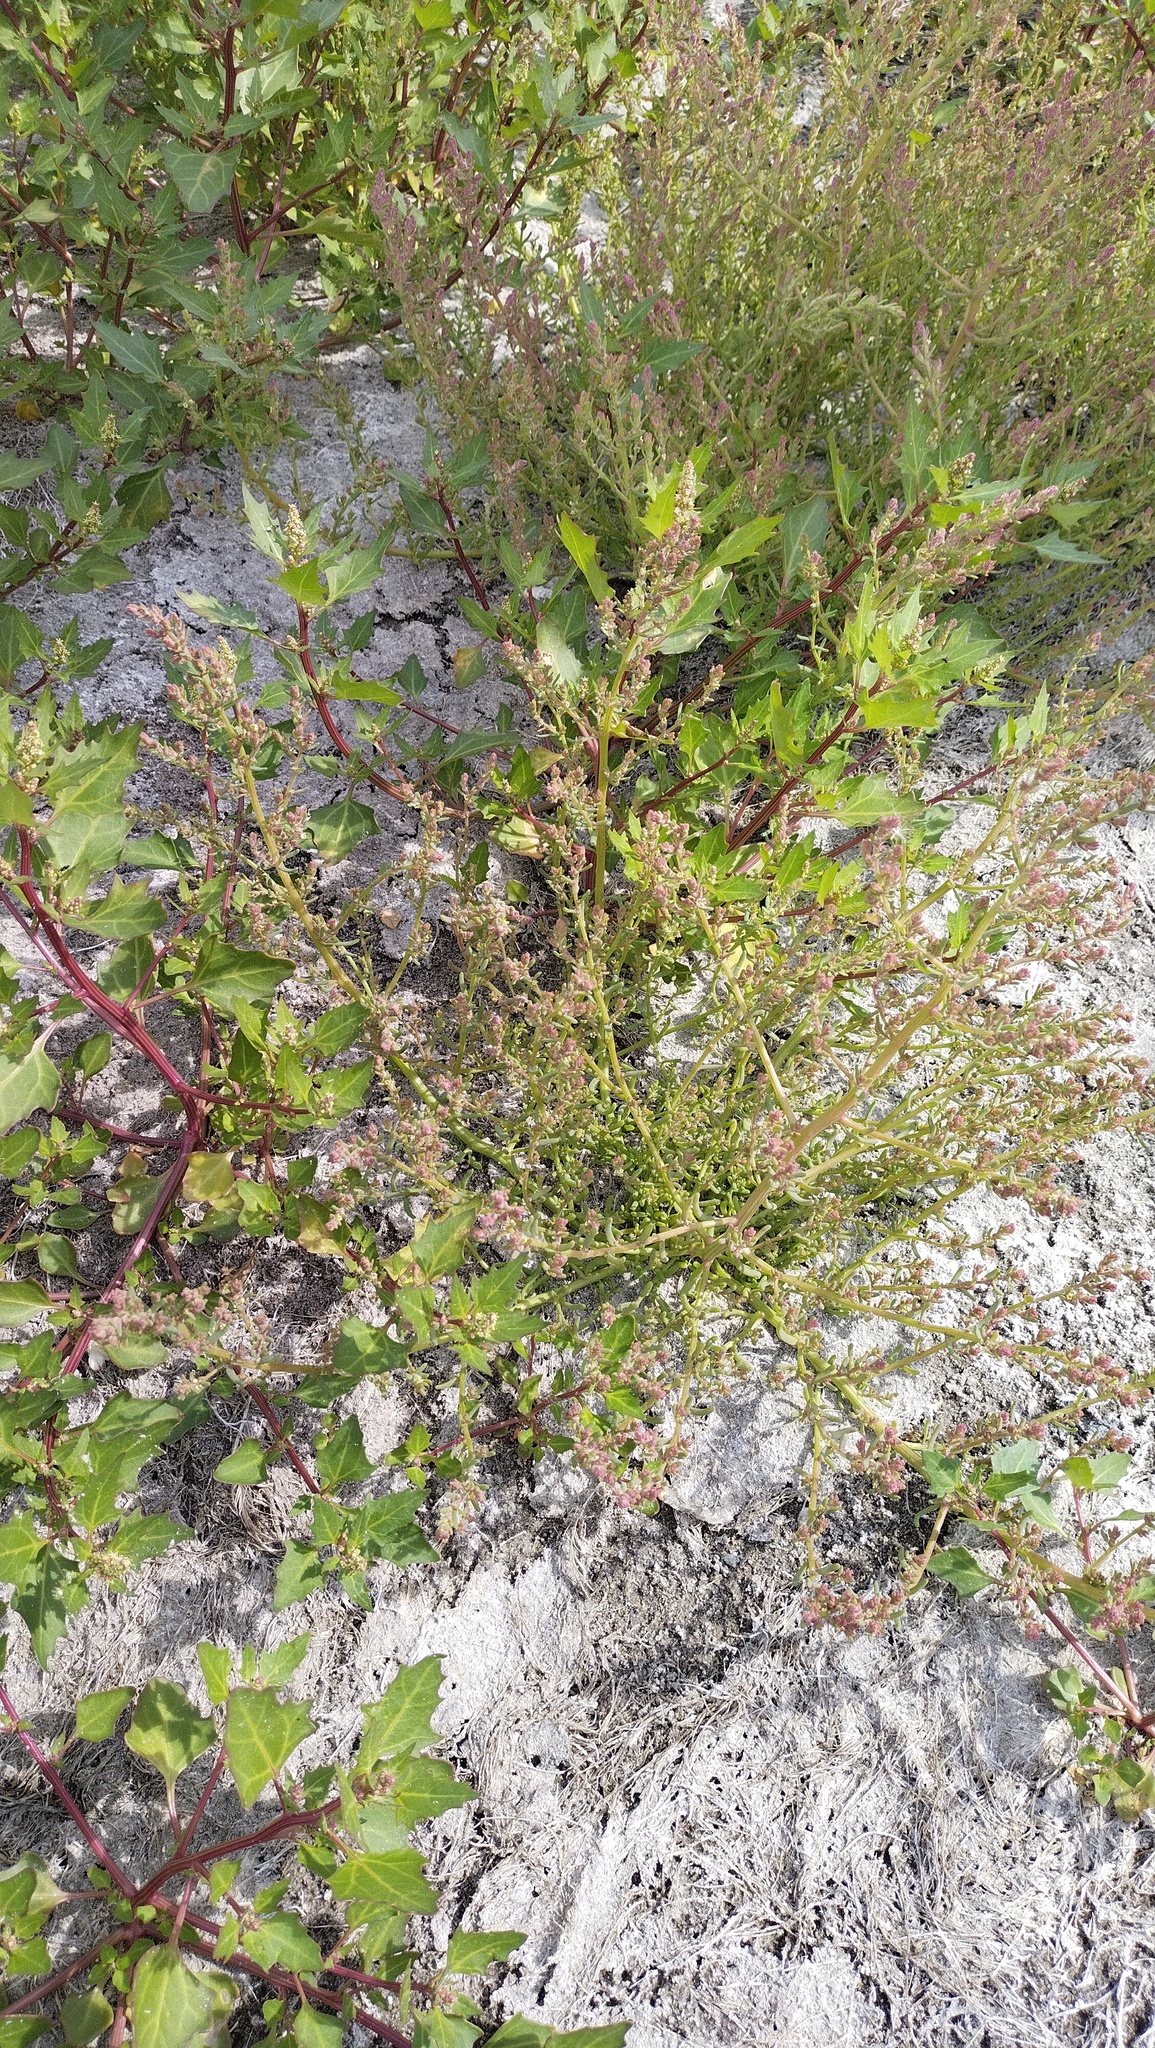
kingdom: Plantae
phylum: Tracheophyta
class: Magnoliopsida
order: Caryophyllales
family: Amaranthaceae
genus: Oxybasis
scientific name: Oxybasis rubra
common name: Red goosefoot
